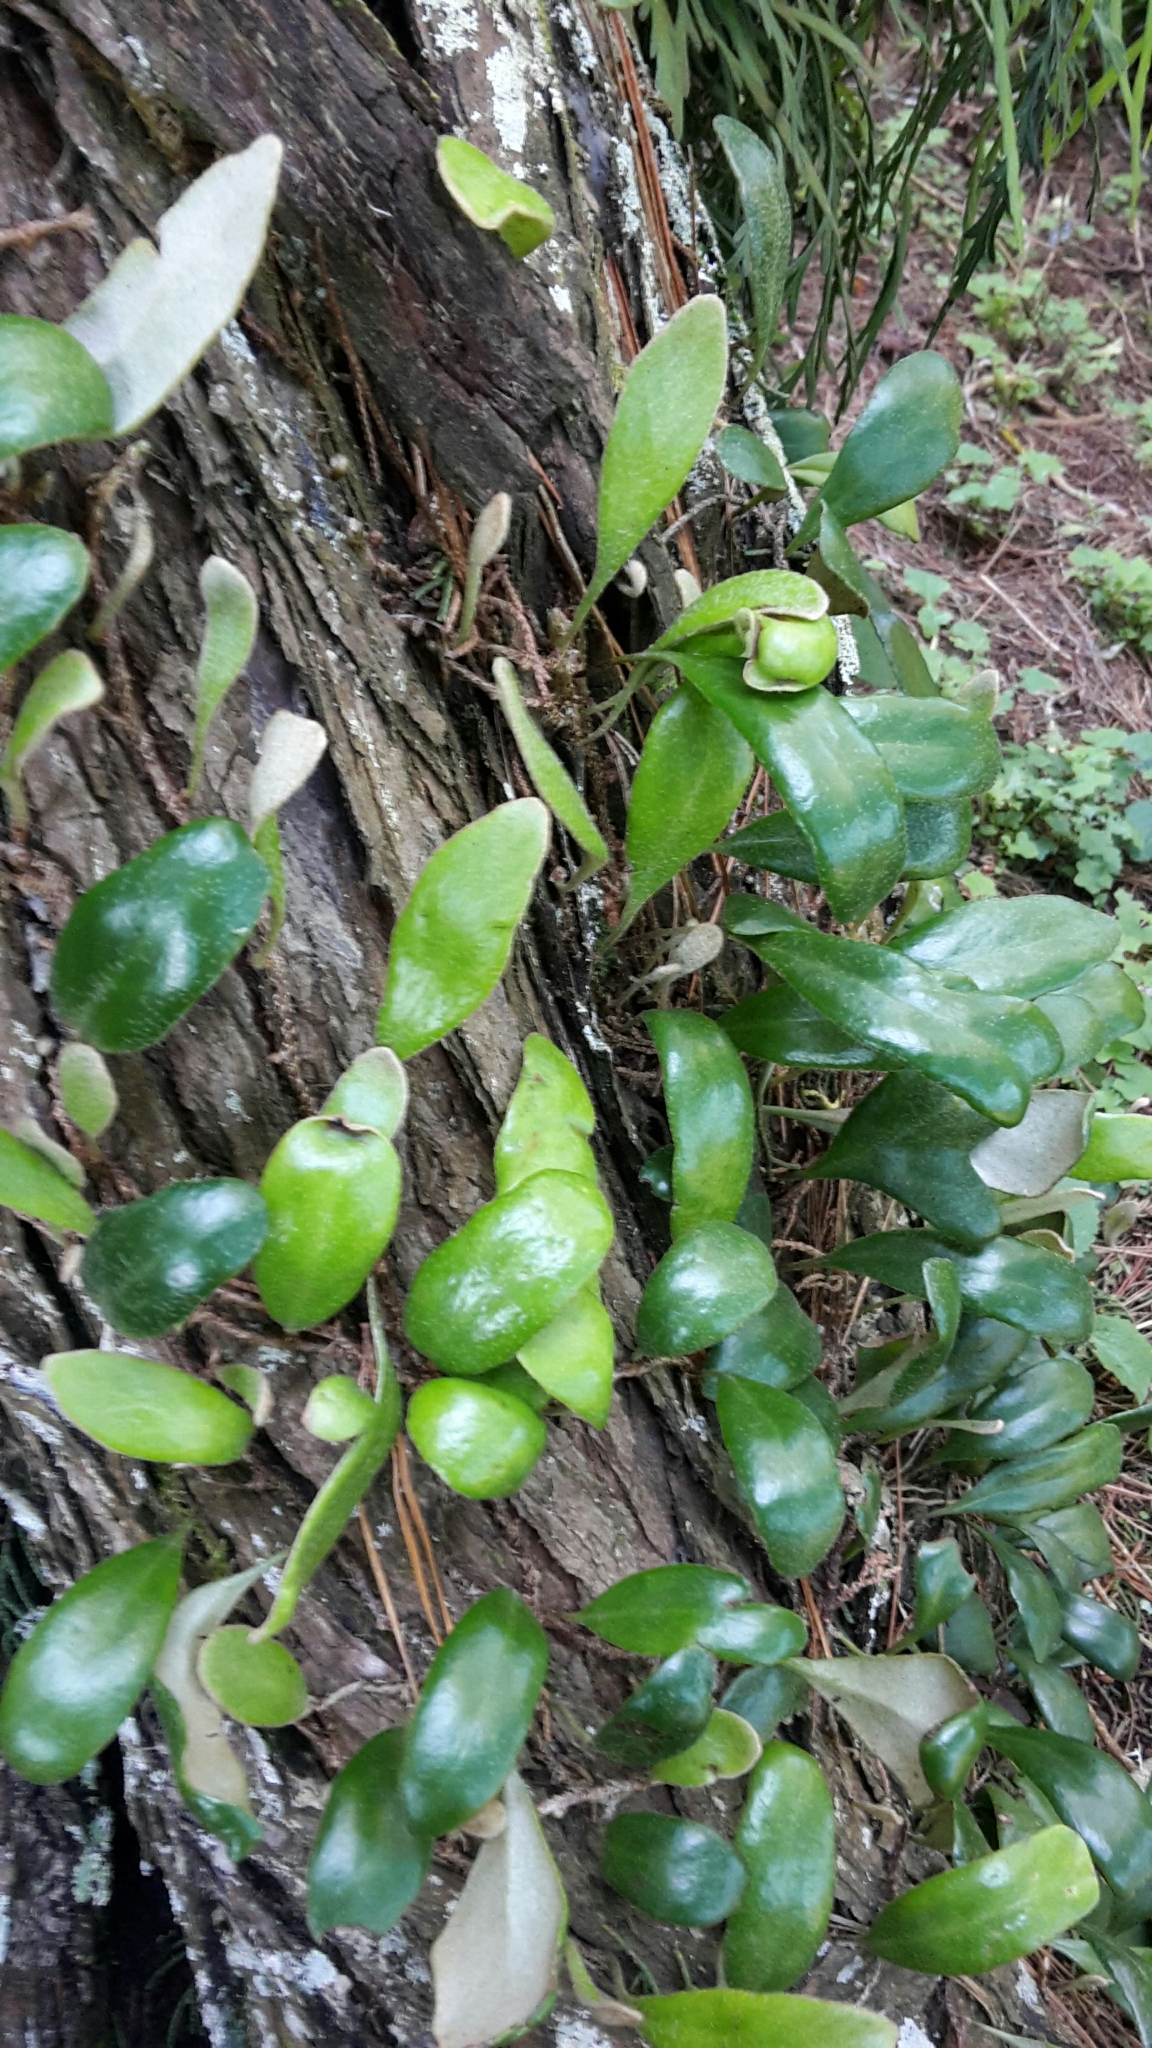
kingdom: Plantae
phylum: Tracheophyta
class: Polypodiopsida
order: Polypodiales
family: Polypodiaceae
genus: Pyrrosia
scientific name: Pyrrosia eleagnifolia
